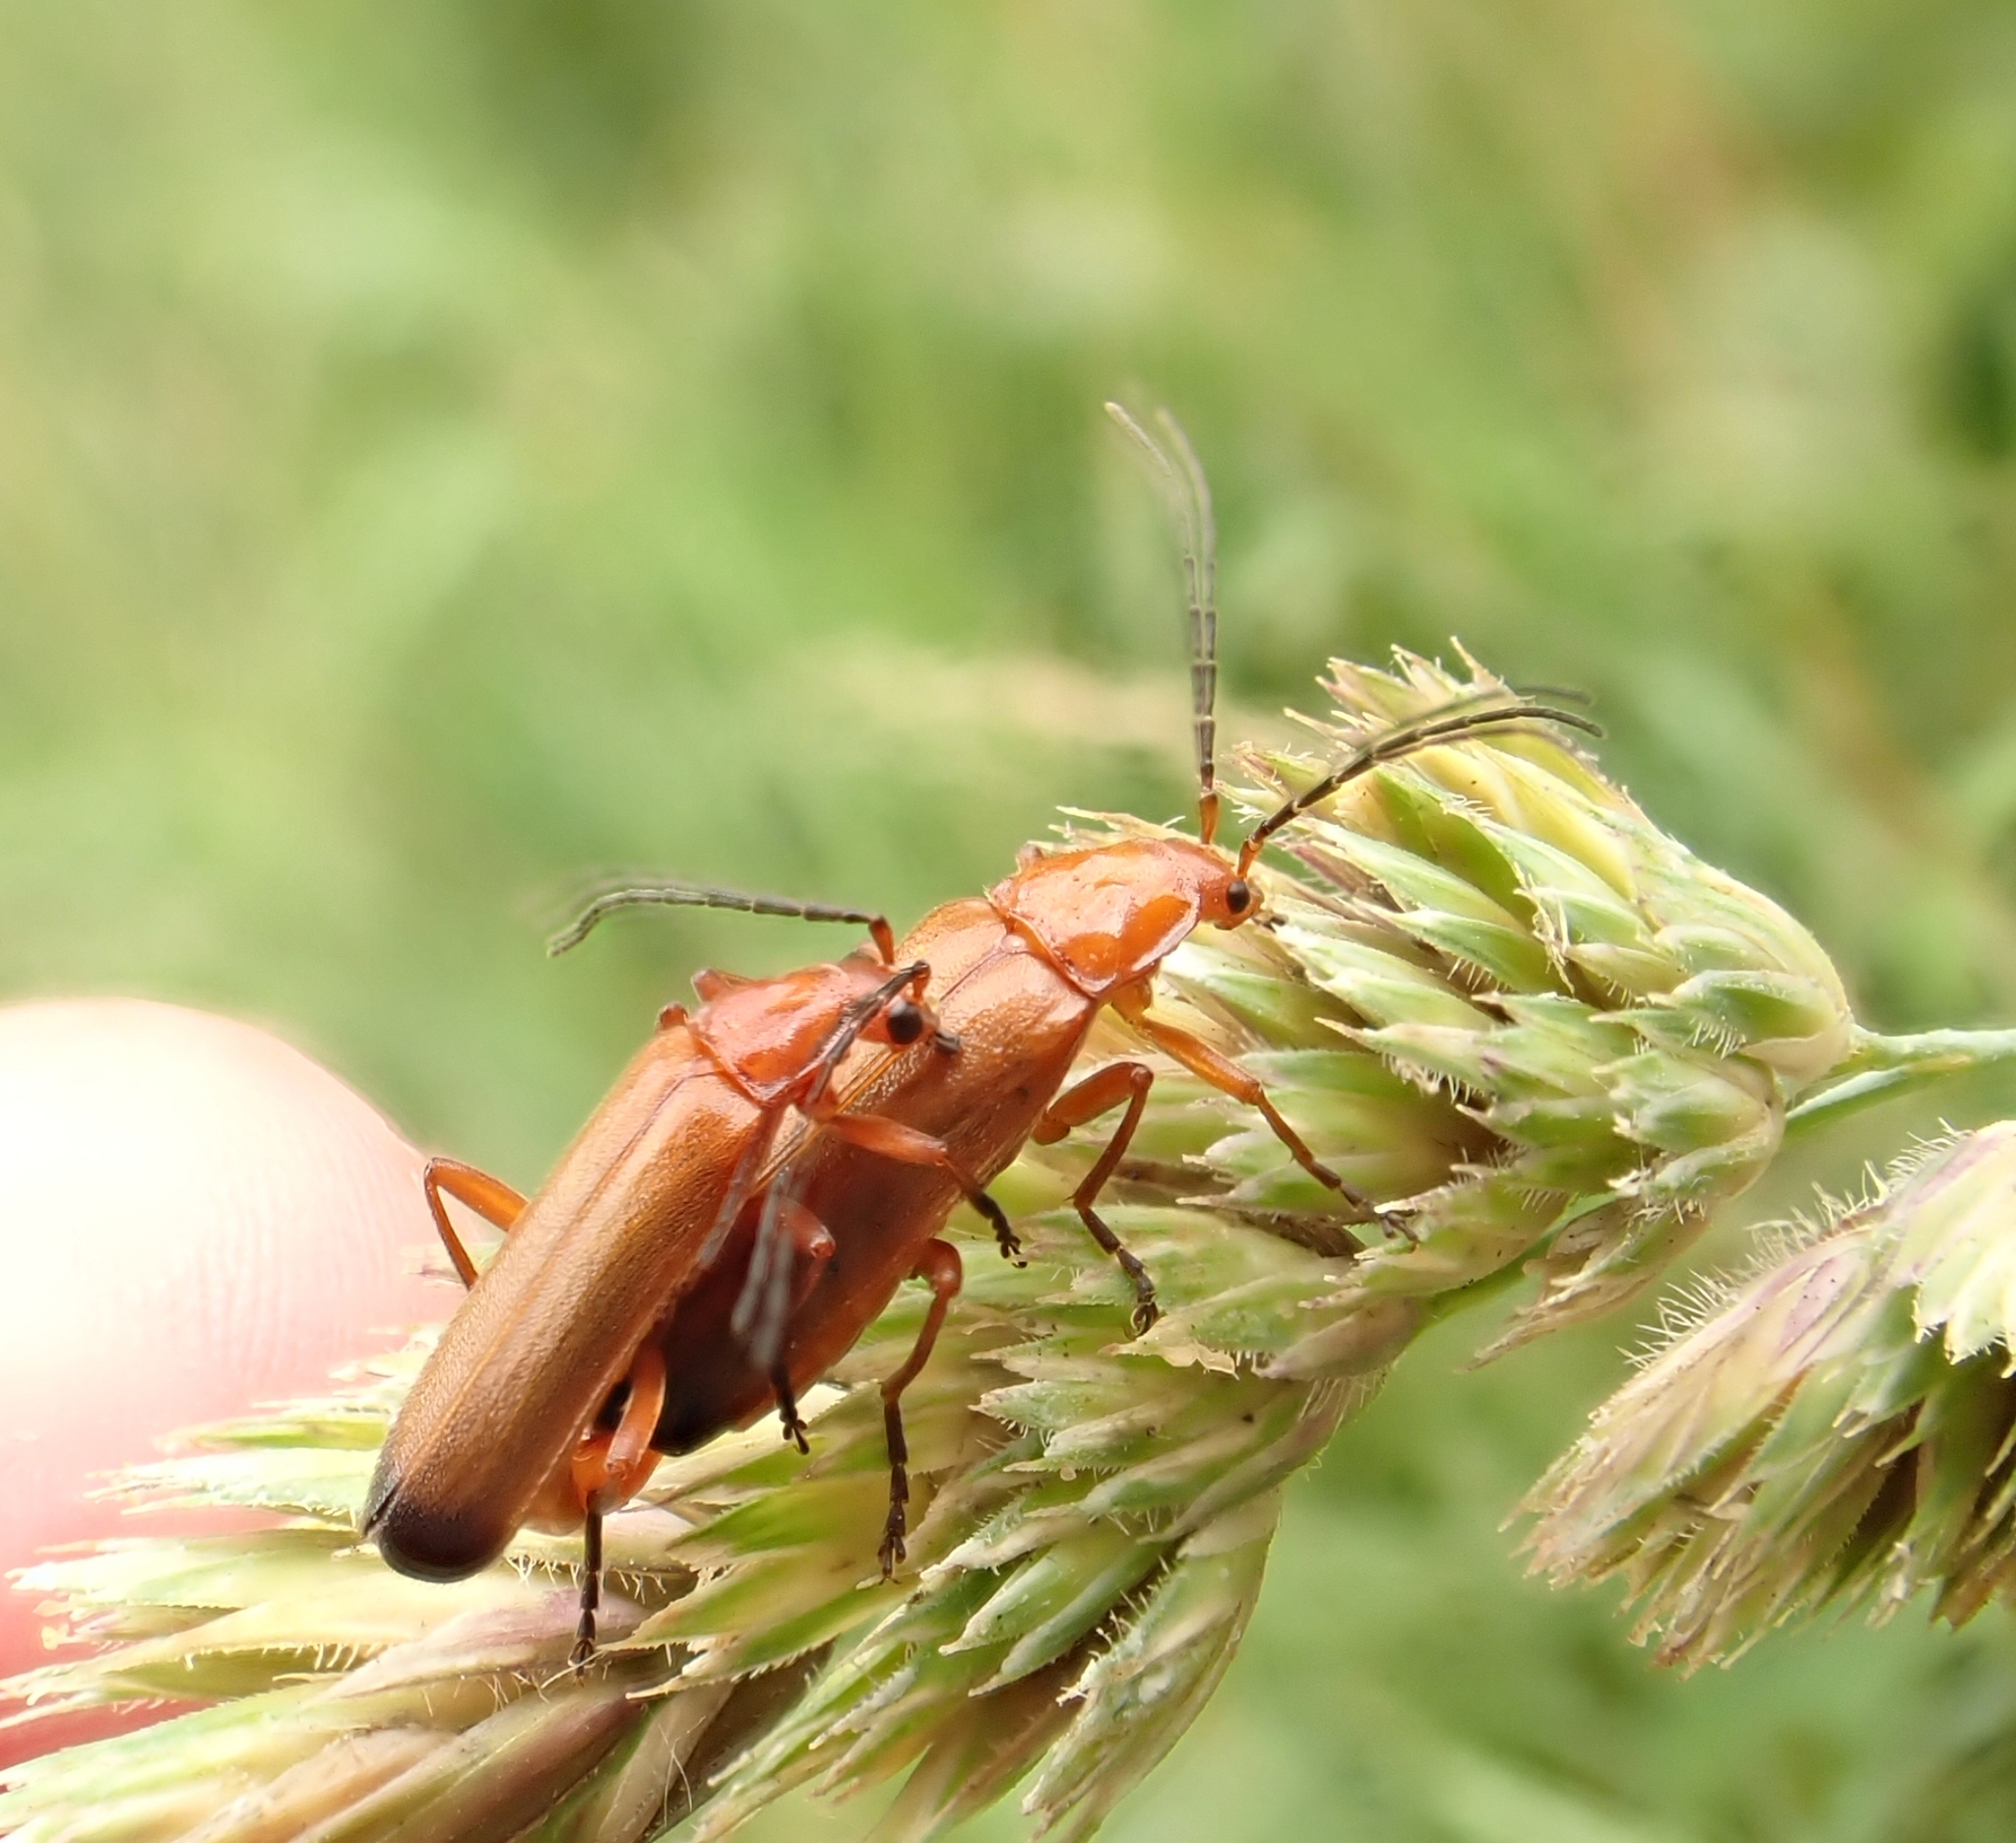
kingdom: Animalia
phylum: Arthropoda
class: Insecta
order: Coleoptera
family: Cantharidae
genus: Rhagonycha
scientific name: Rhagonycha fulva
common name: Common red soldier beetle
